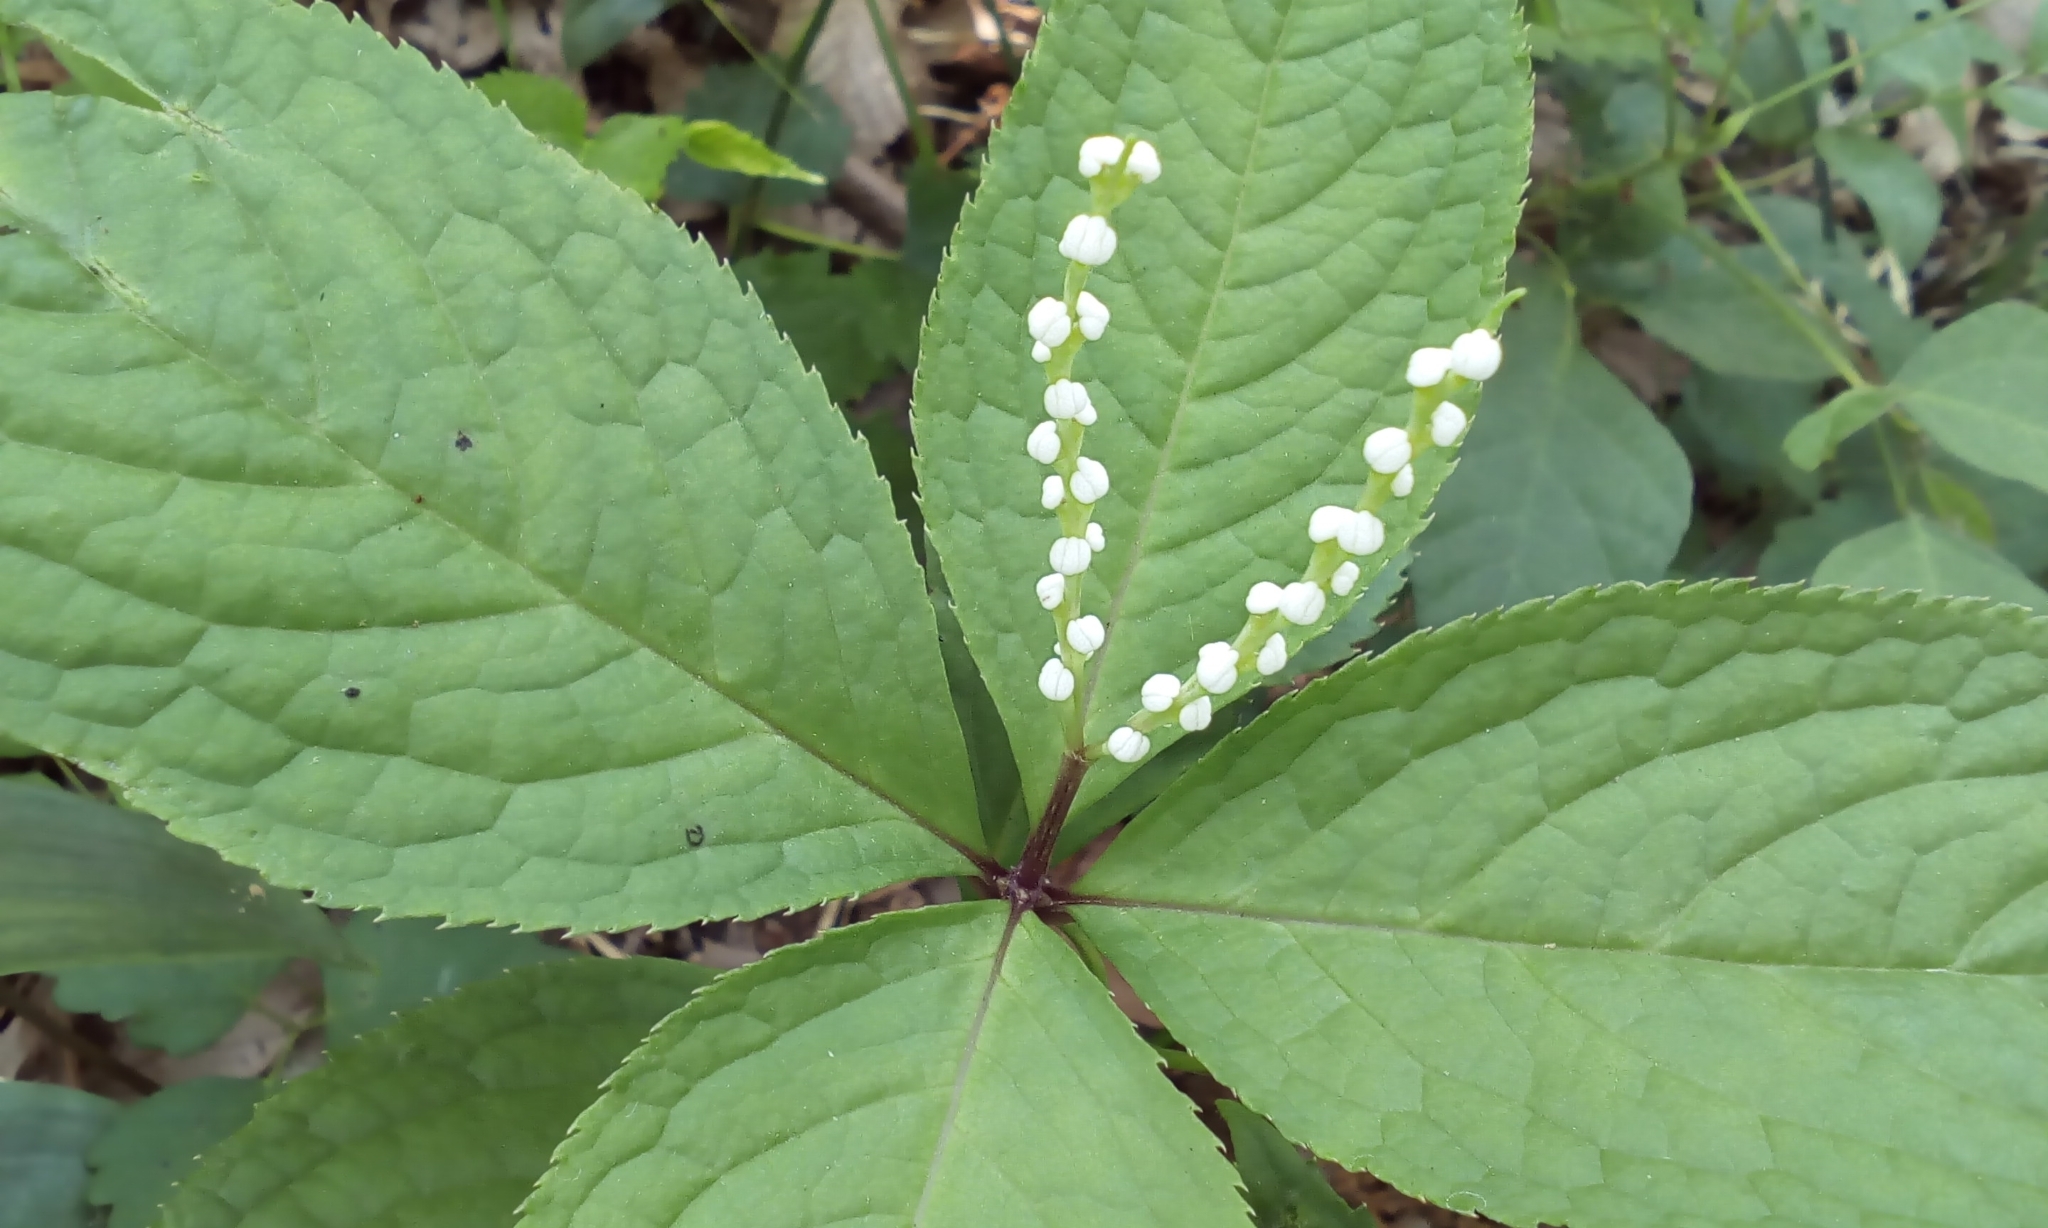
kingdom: Plantae
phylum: Tracheophyta
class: Magnoliopsida
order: Chloranthales
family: Chloranthaceae
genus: Chloranthus
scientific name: Chloranthus serratus
